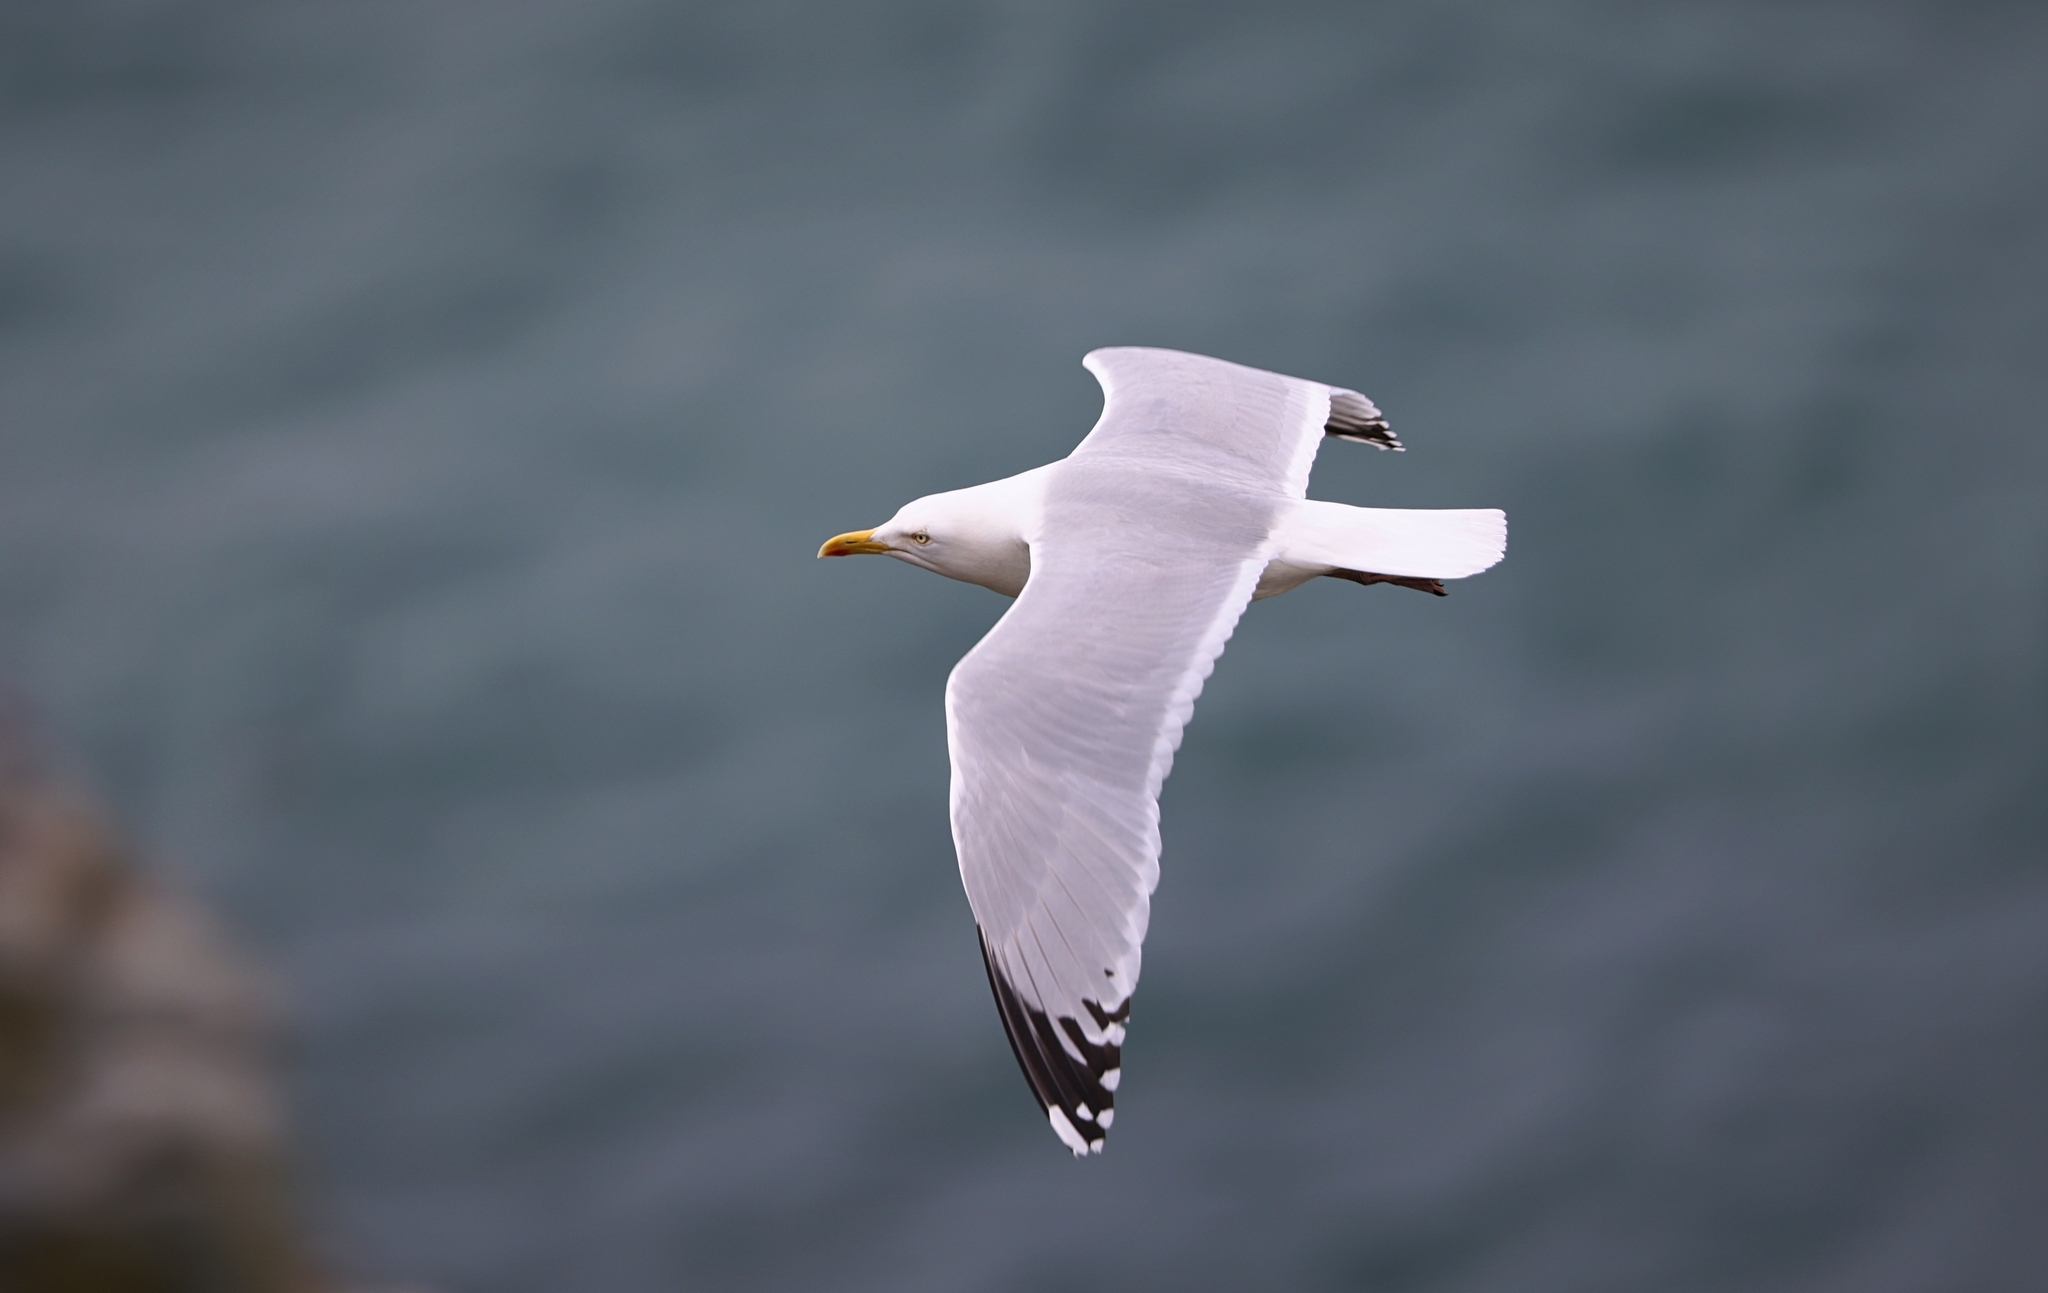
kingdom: Animalia
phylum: Chordata
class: Aves
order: Charadriiformes
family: Laridae
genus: Larus
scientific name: Larus argentatus
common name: Herring gull
